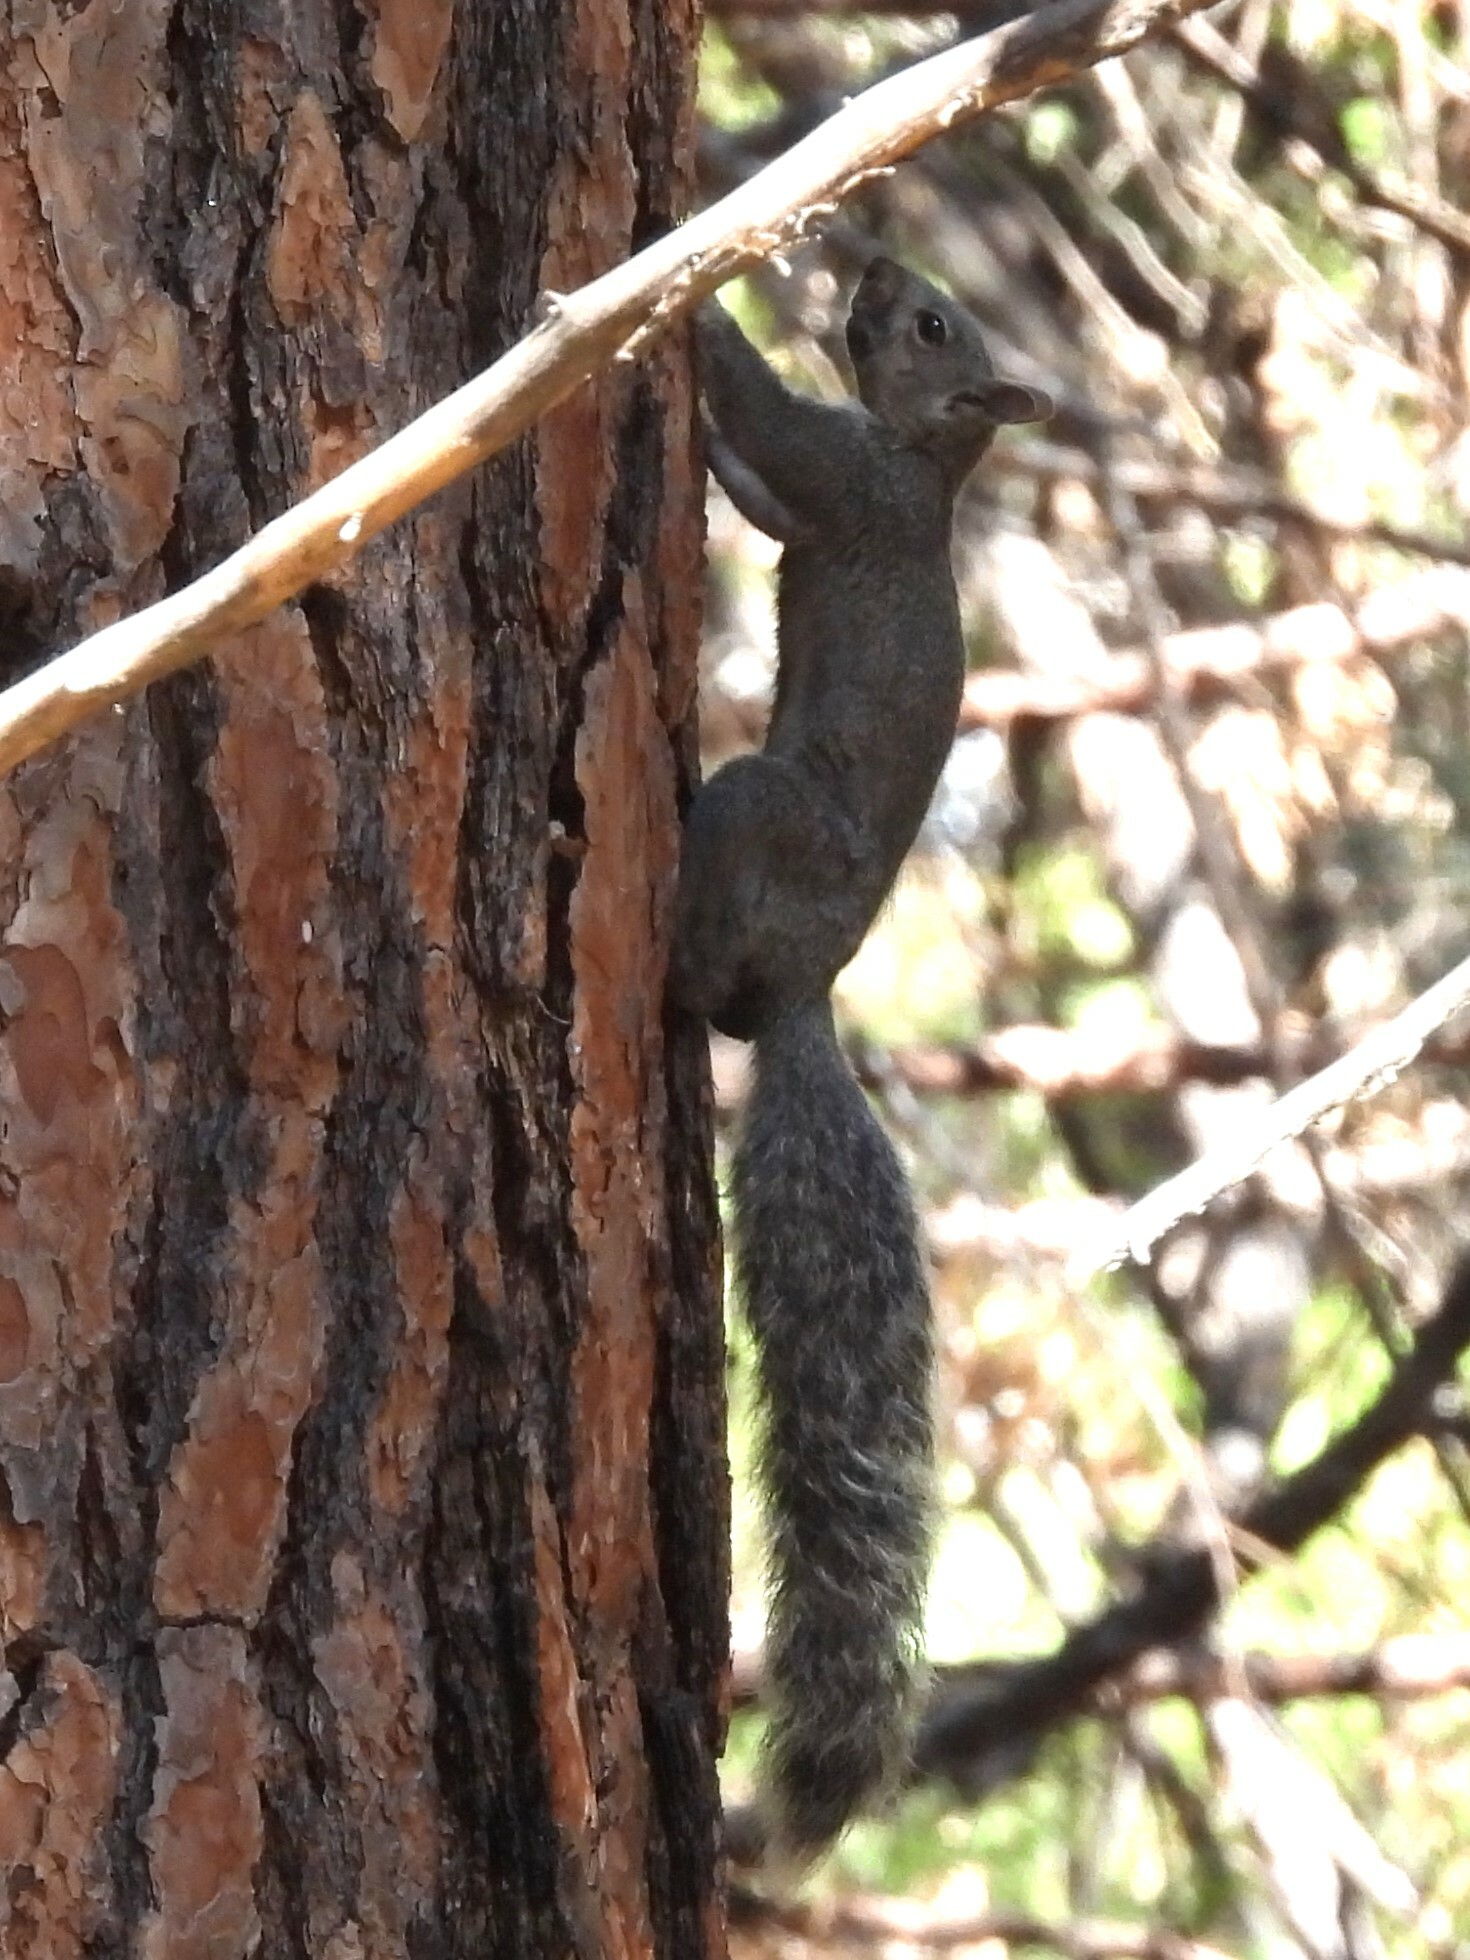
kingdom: Animalia
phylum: Chordata
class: Mammalia
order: Rodentia
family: Sciuridae
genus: Sciurus
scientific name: Sciurus griseus
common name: Western gray squirrel
